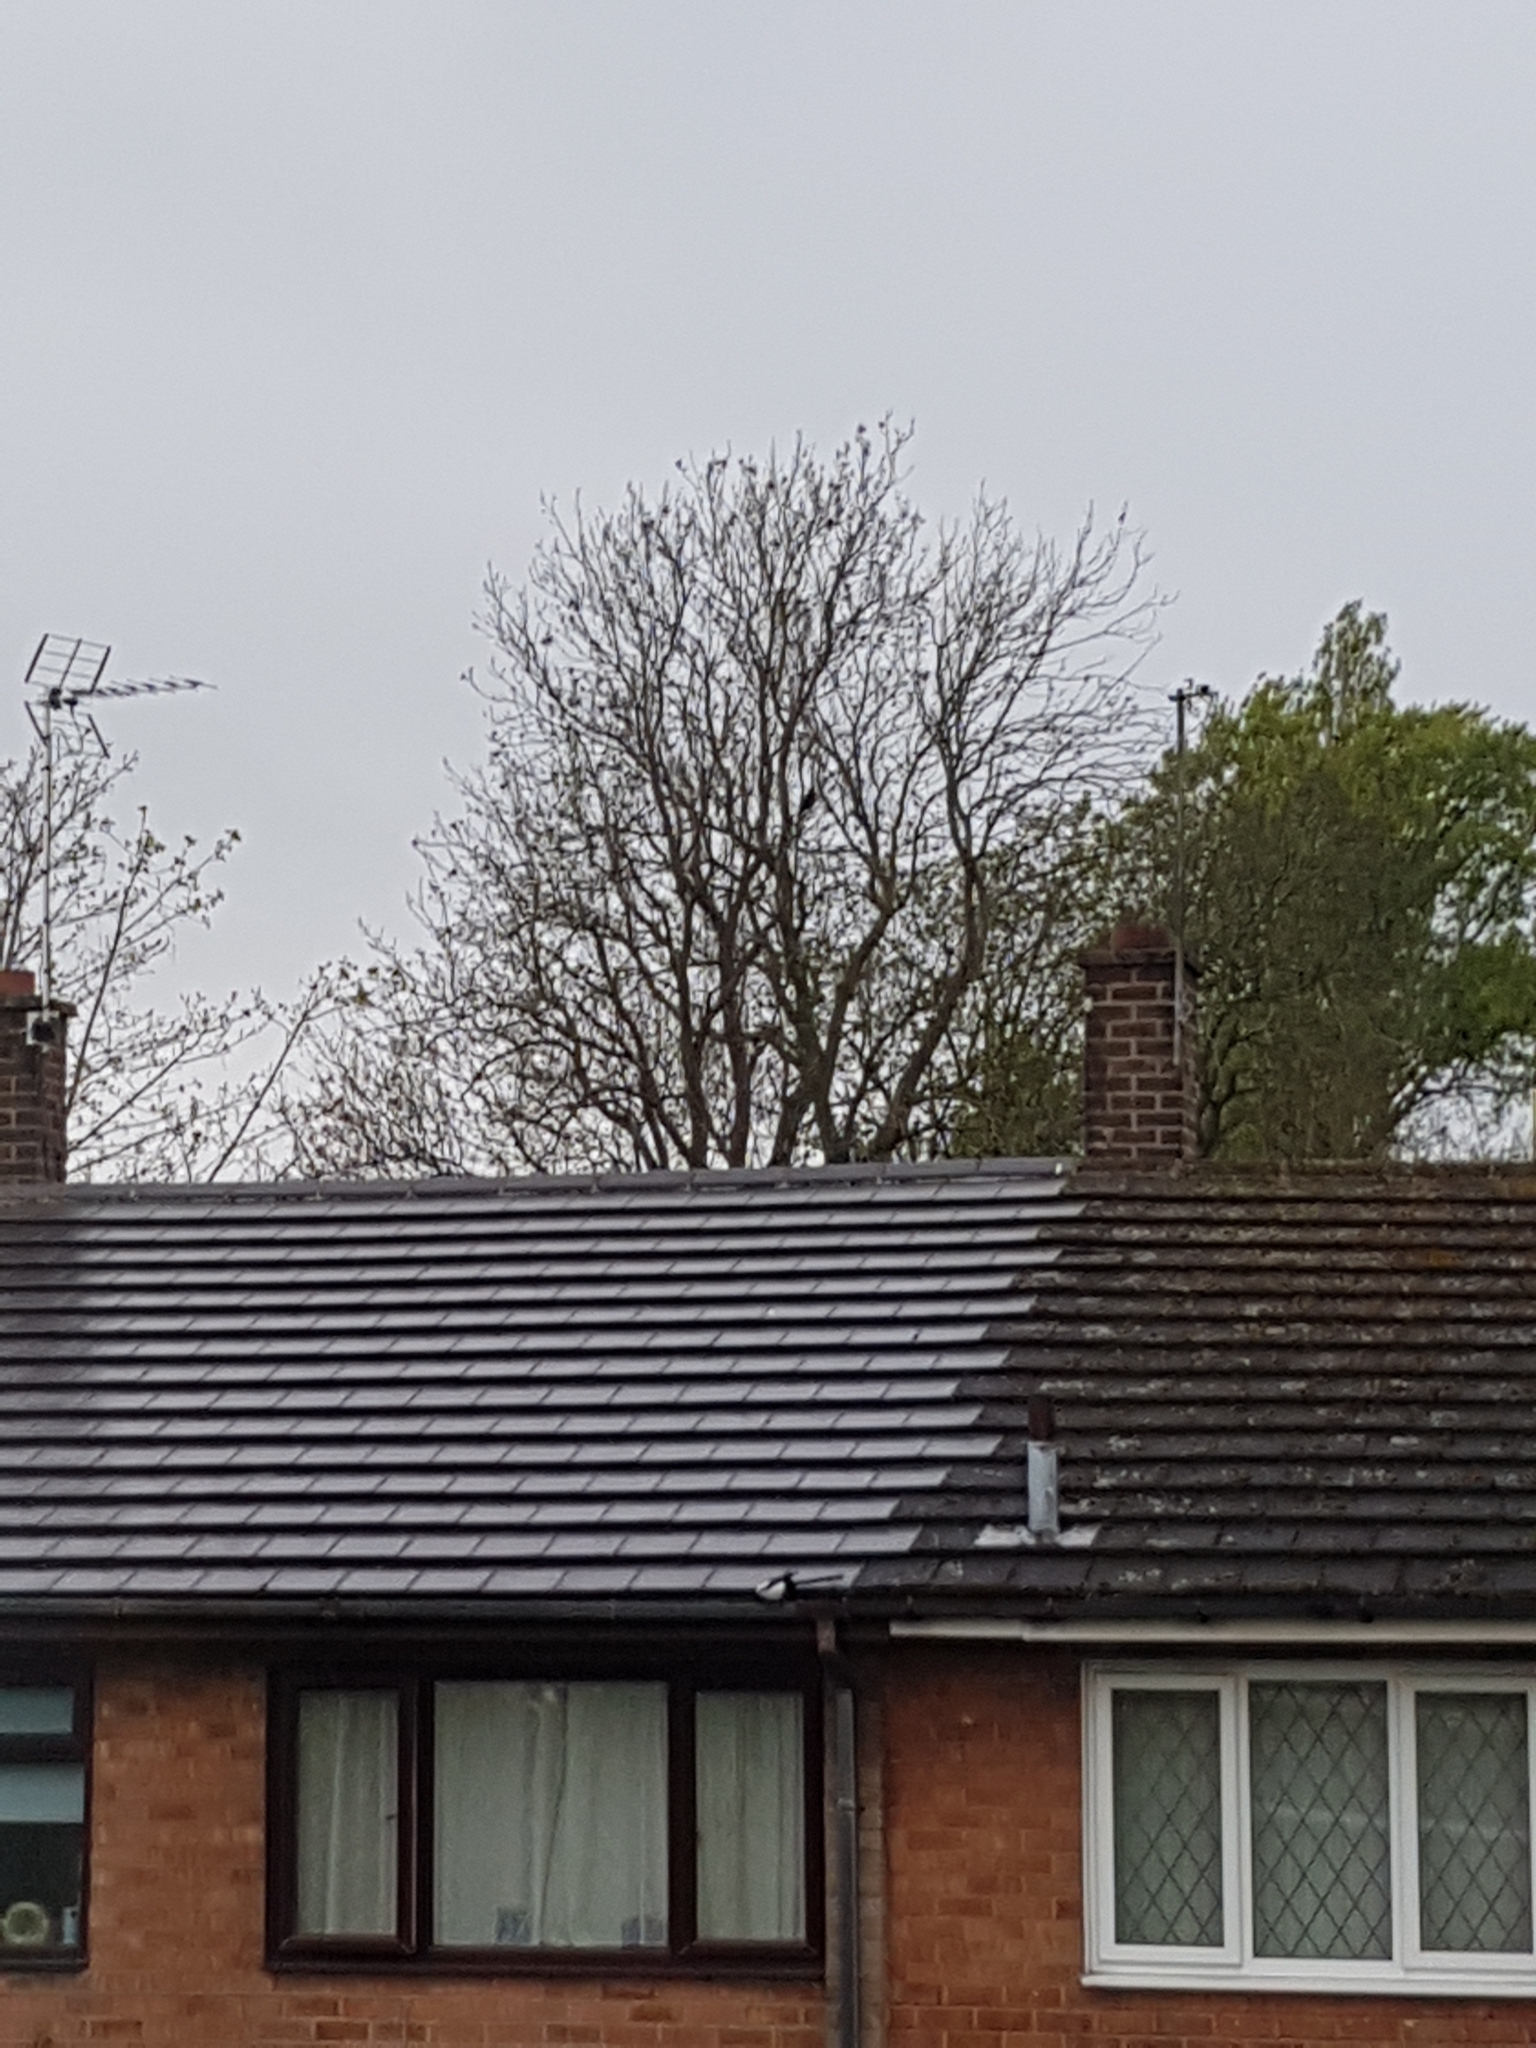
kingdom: Animalia
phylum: Chordata
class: Aves
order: Passeriformes
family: Corvidae
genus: Pica
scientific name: Pica pica
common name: Eurasian magpie
